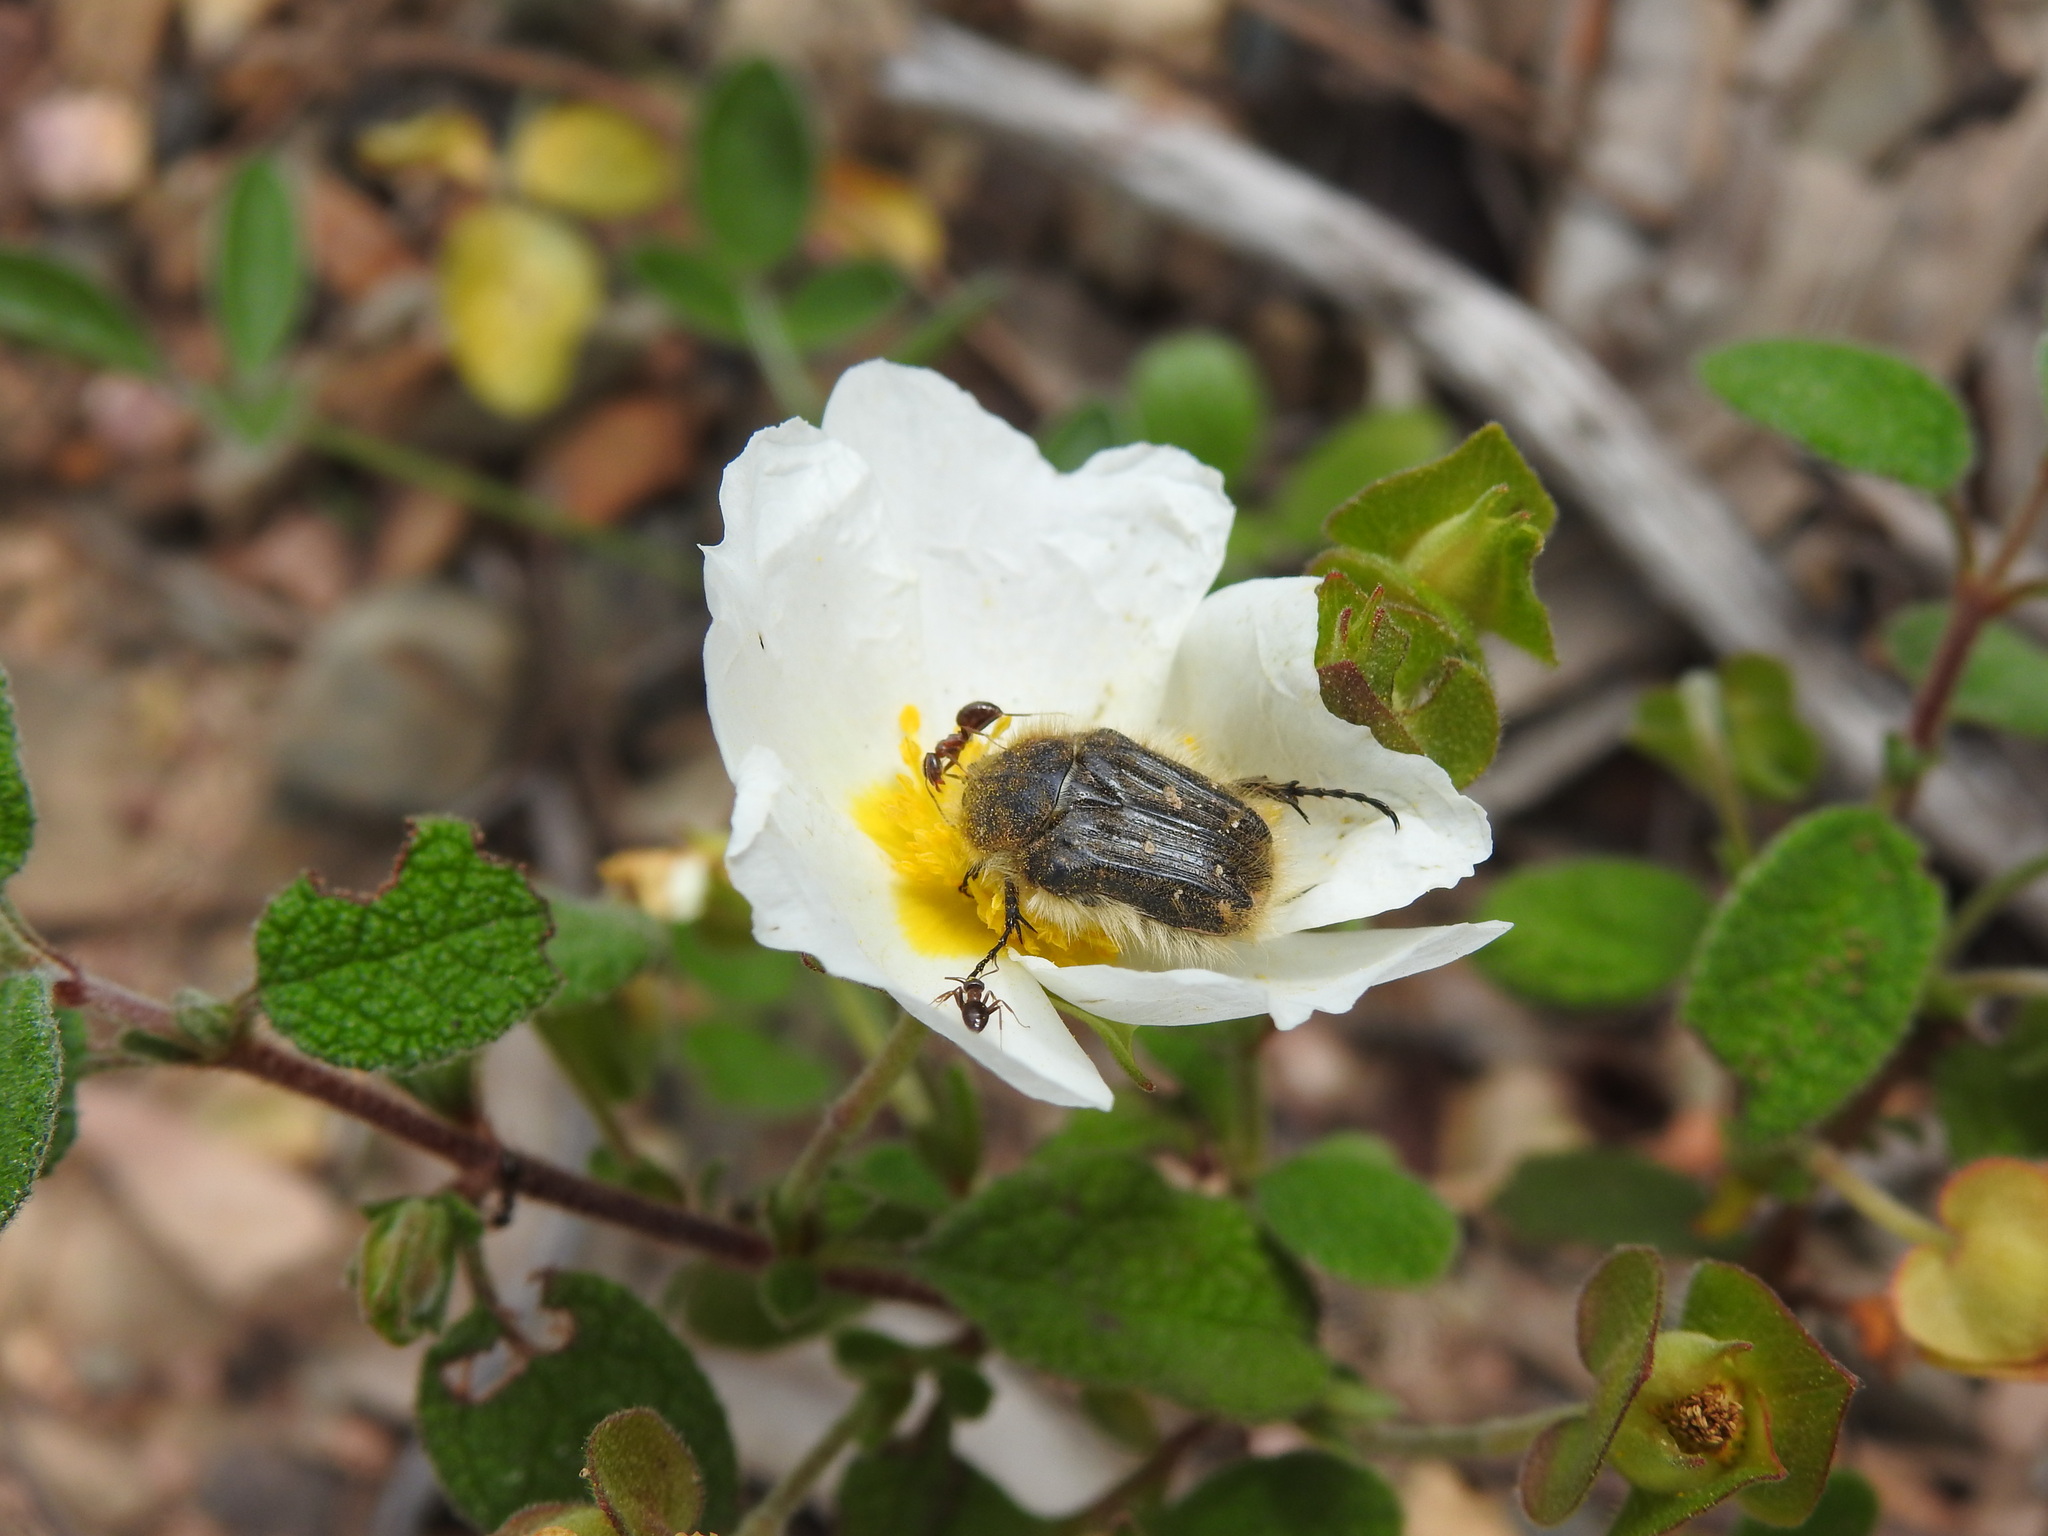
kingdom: Plantae
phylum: Tracheophyta
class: Magnoliopsida
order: Malvales
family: Cistaceae
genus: Cistus
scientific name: Cistus salviifolius
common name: Salvia cistus
